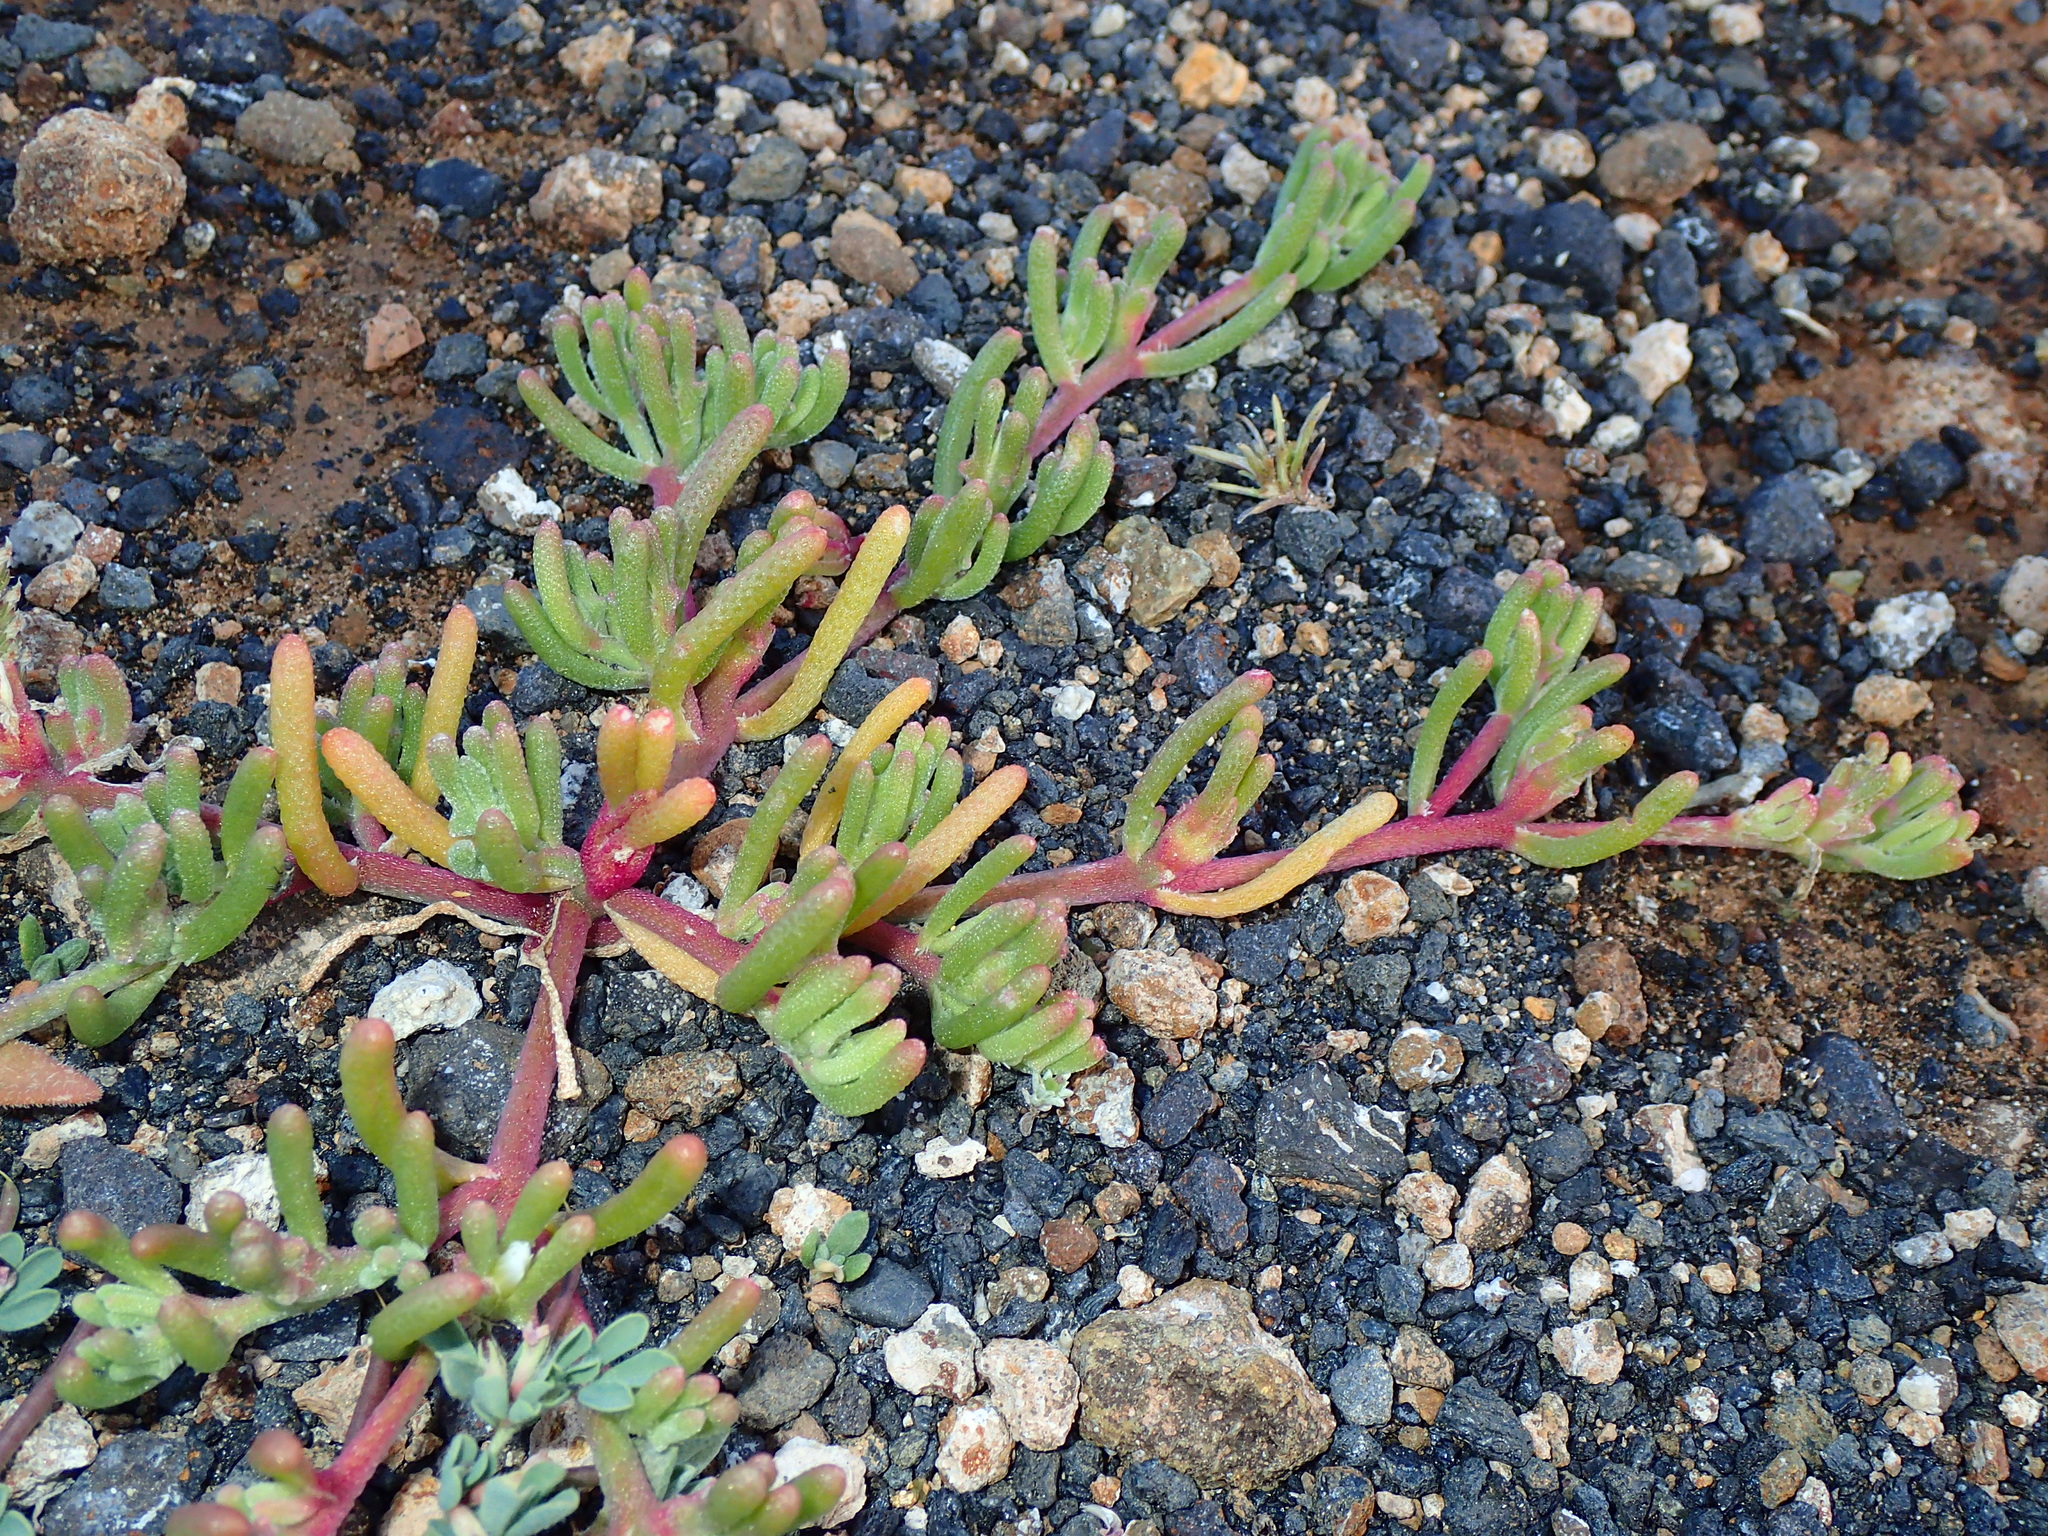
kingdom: Plantae
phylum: Tracheophyta
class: Magnoliopsida
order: Caryophyllales
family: Aizoaceae
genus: Mesembryanthemum
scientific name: Mesembryanthemum nodiflorum
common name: Slenderleaf iceplant
